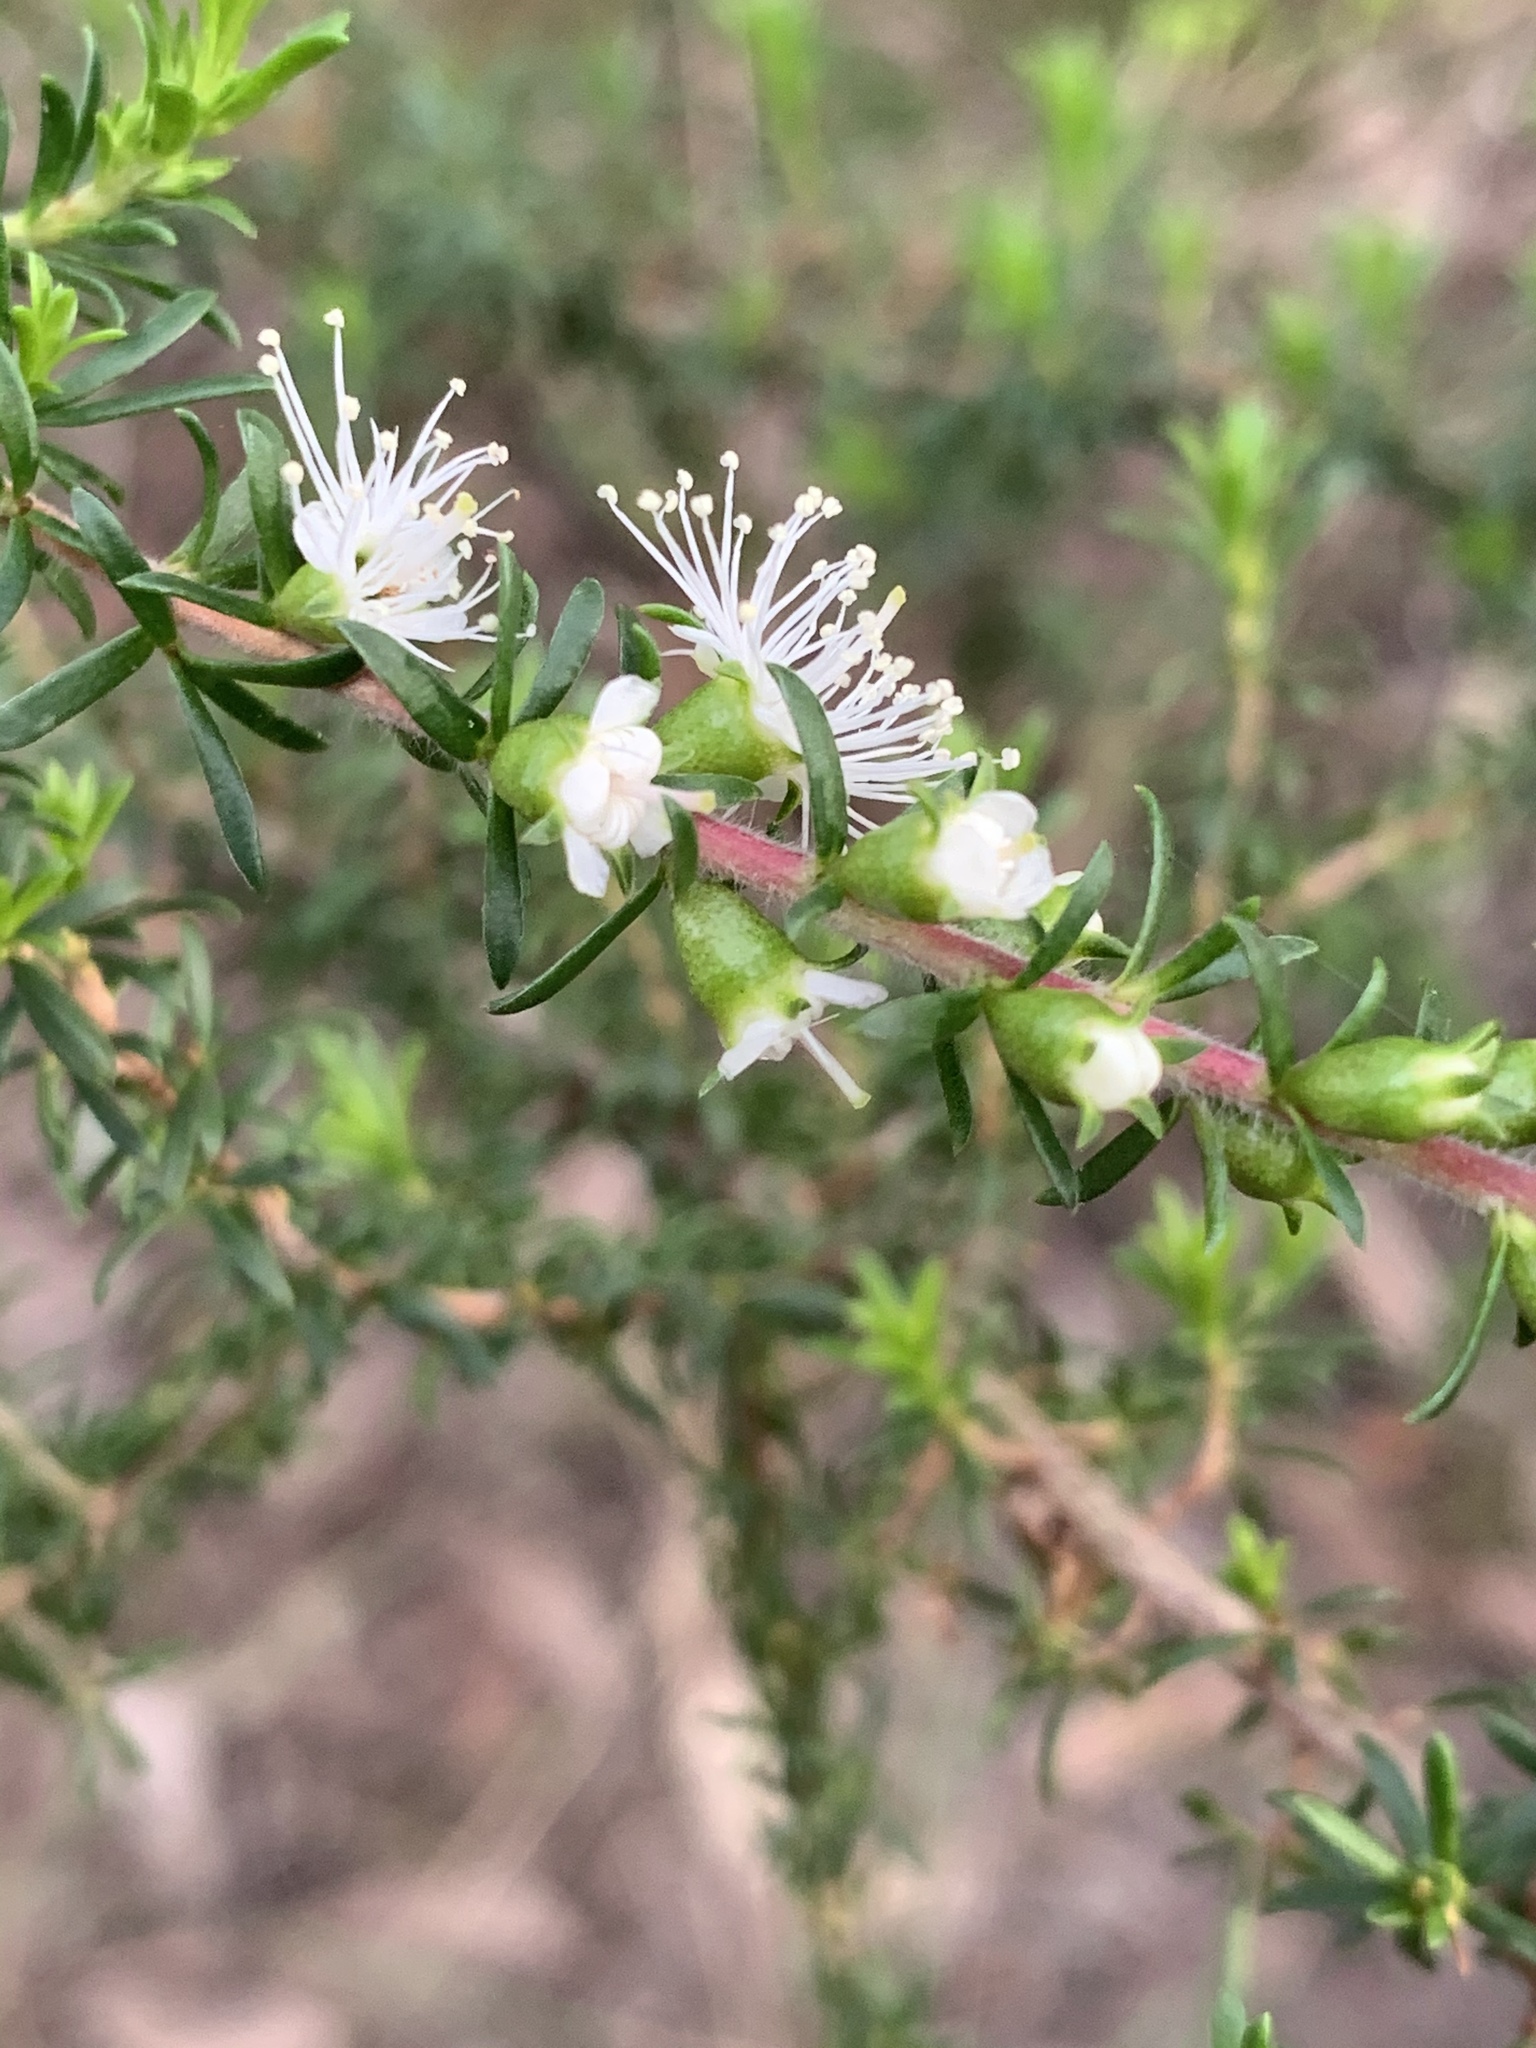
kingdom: Plantae
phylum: Tracheophyta
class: Magnoliopsida
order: Myrtales
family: Myrtaceae
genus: Kunzea
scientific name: Kunzea ambigua
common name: Tickbush
